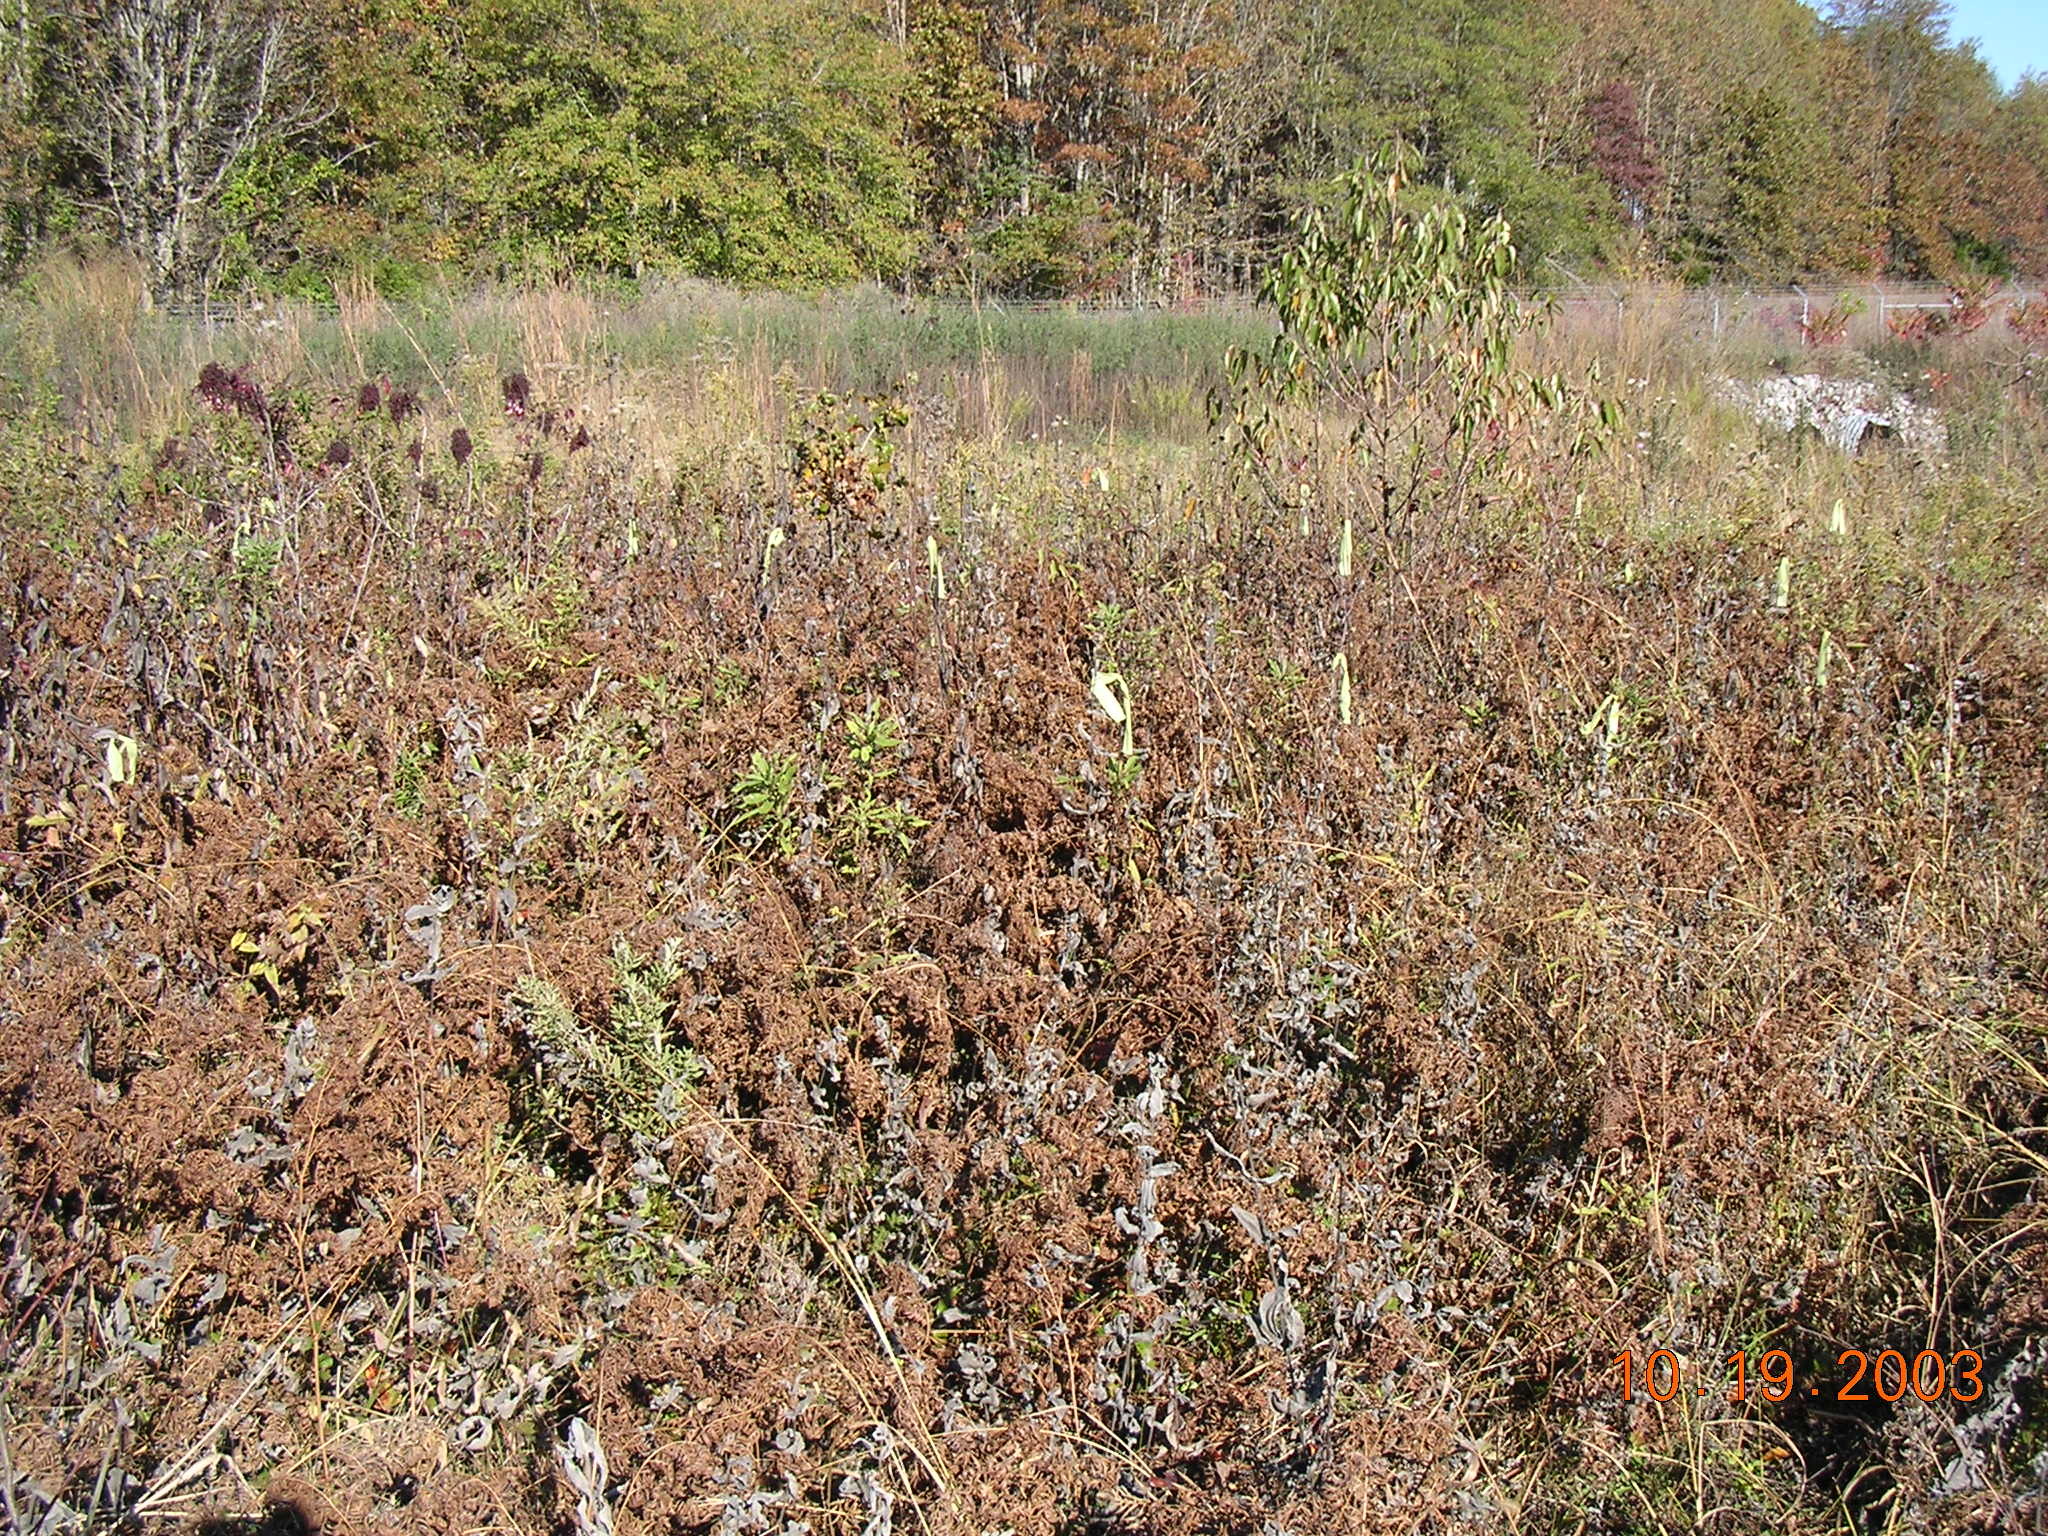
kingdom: Plantae
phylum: Tracheophyta
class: Magnoliopsida
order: Asterales
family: Asteraceae
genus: Helianthus
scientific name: Helianthus eggertii
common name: Eggert's sunflower
